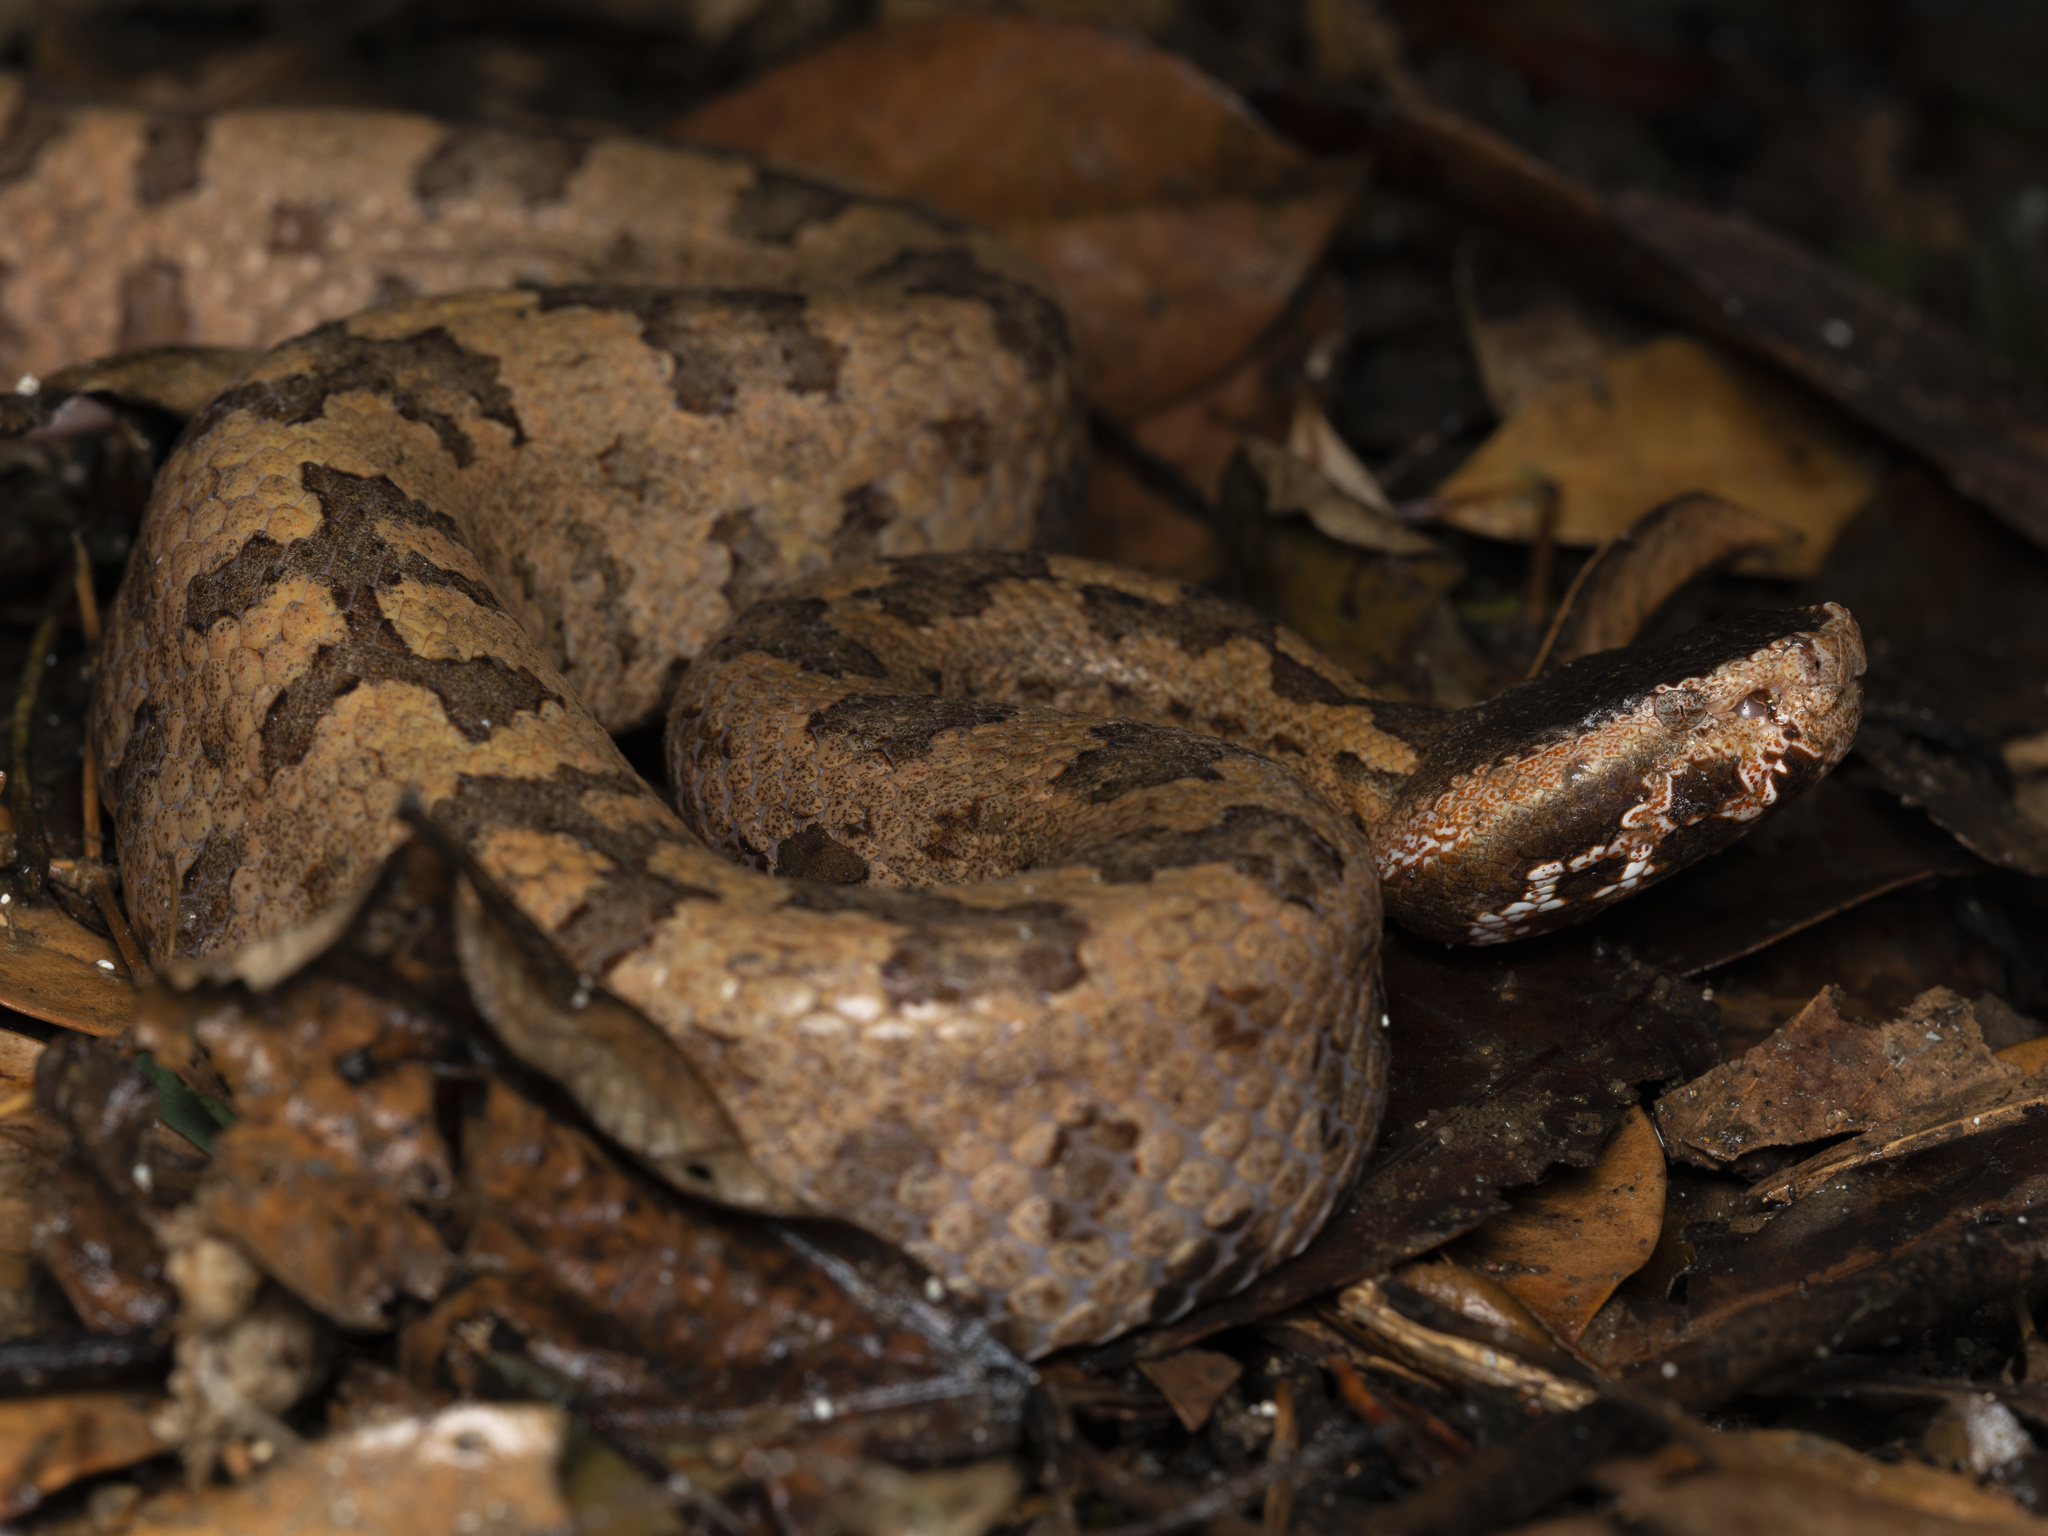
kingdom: Animalia
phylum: Chordata
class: Squamata
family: Viperidae
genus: Ovophis
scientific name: Ovophis tonkinensis
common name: Tonkin pitviper
